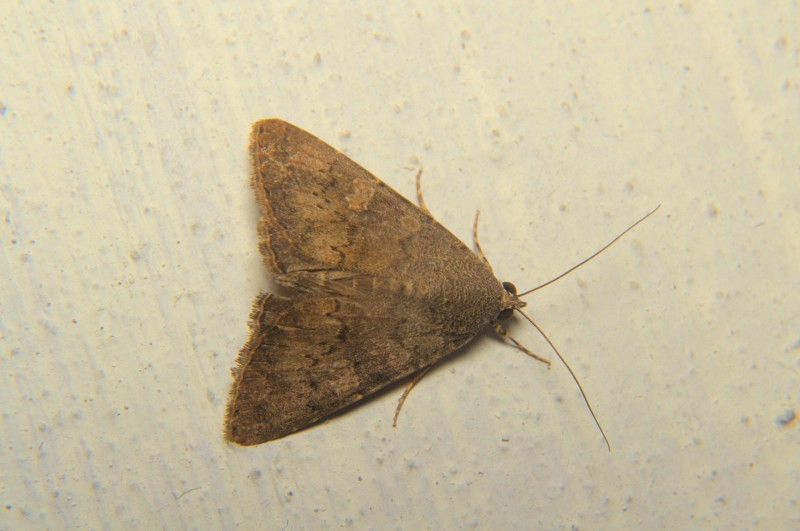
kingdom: Animalia
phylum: Arthropoda
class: Insecta
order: Lepidoptera
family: Noctuidae
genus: Amyna
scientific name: Amyna punctum
